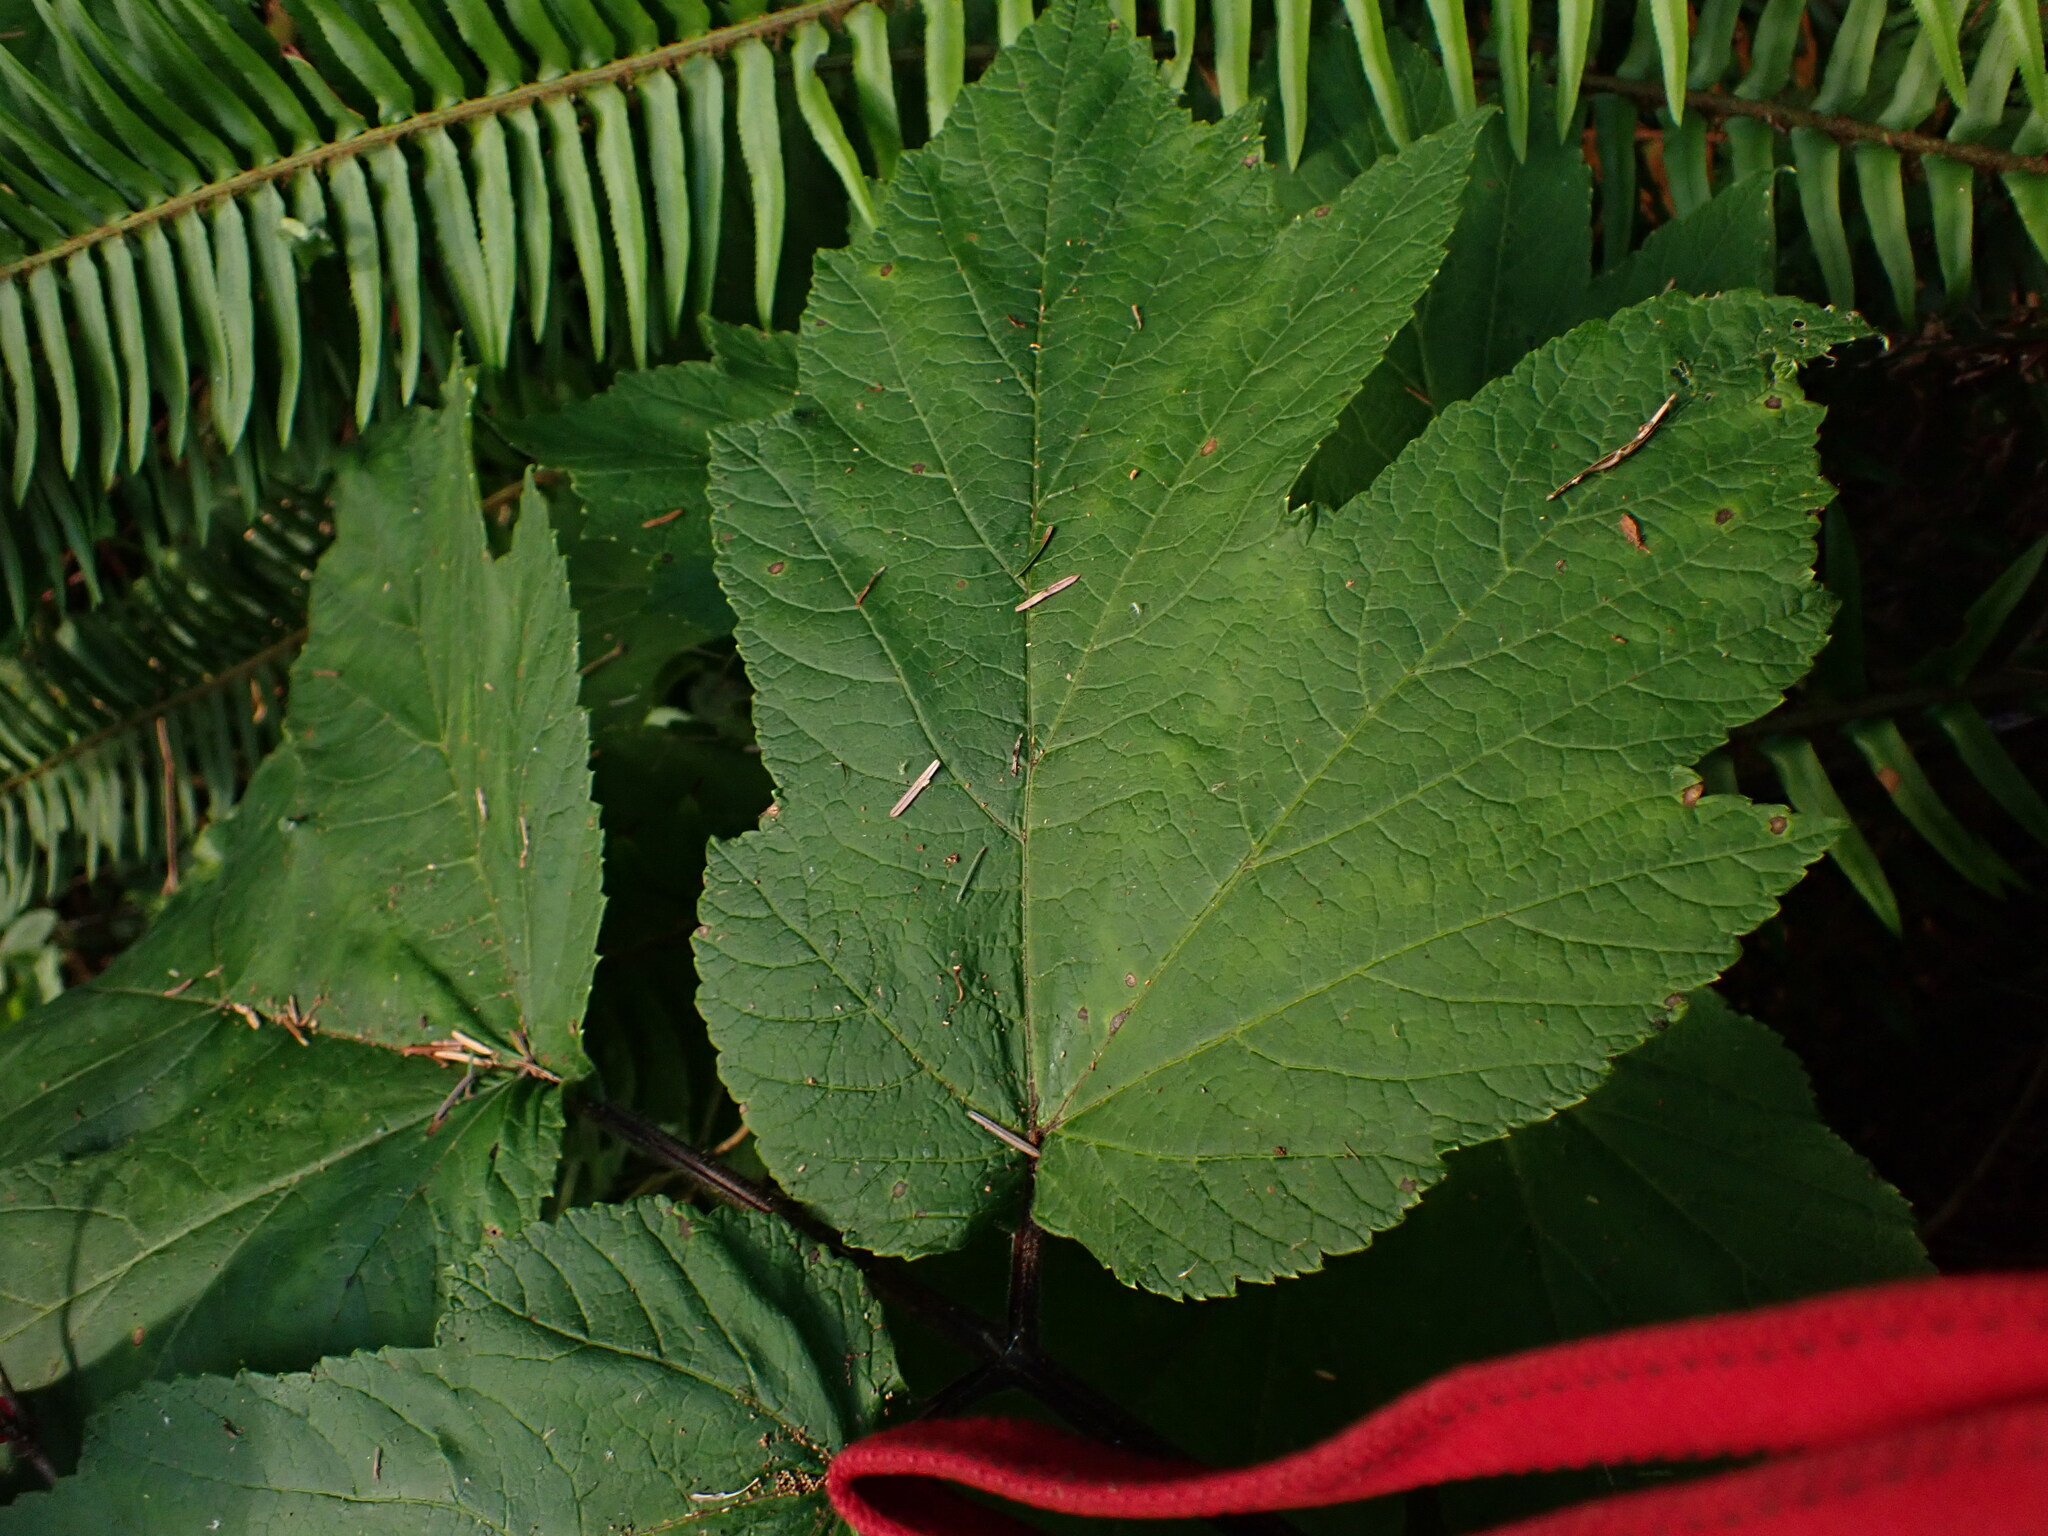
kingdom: Plantae
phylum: Tracheophyta
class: Magnoliopsida
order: Apiales
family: Apiaceae
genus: Heracleum
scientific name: Heracleum maximum
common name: American cow parsnip
